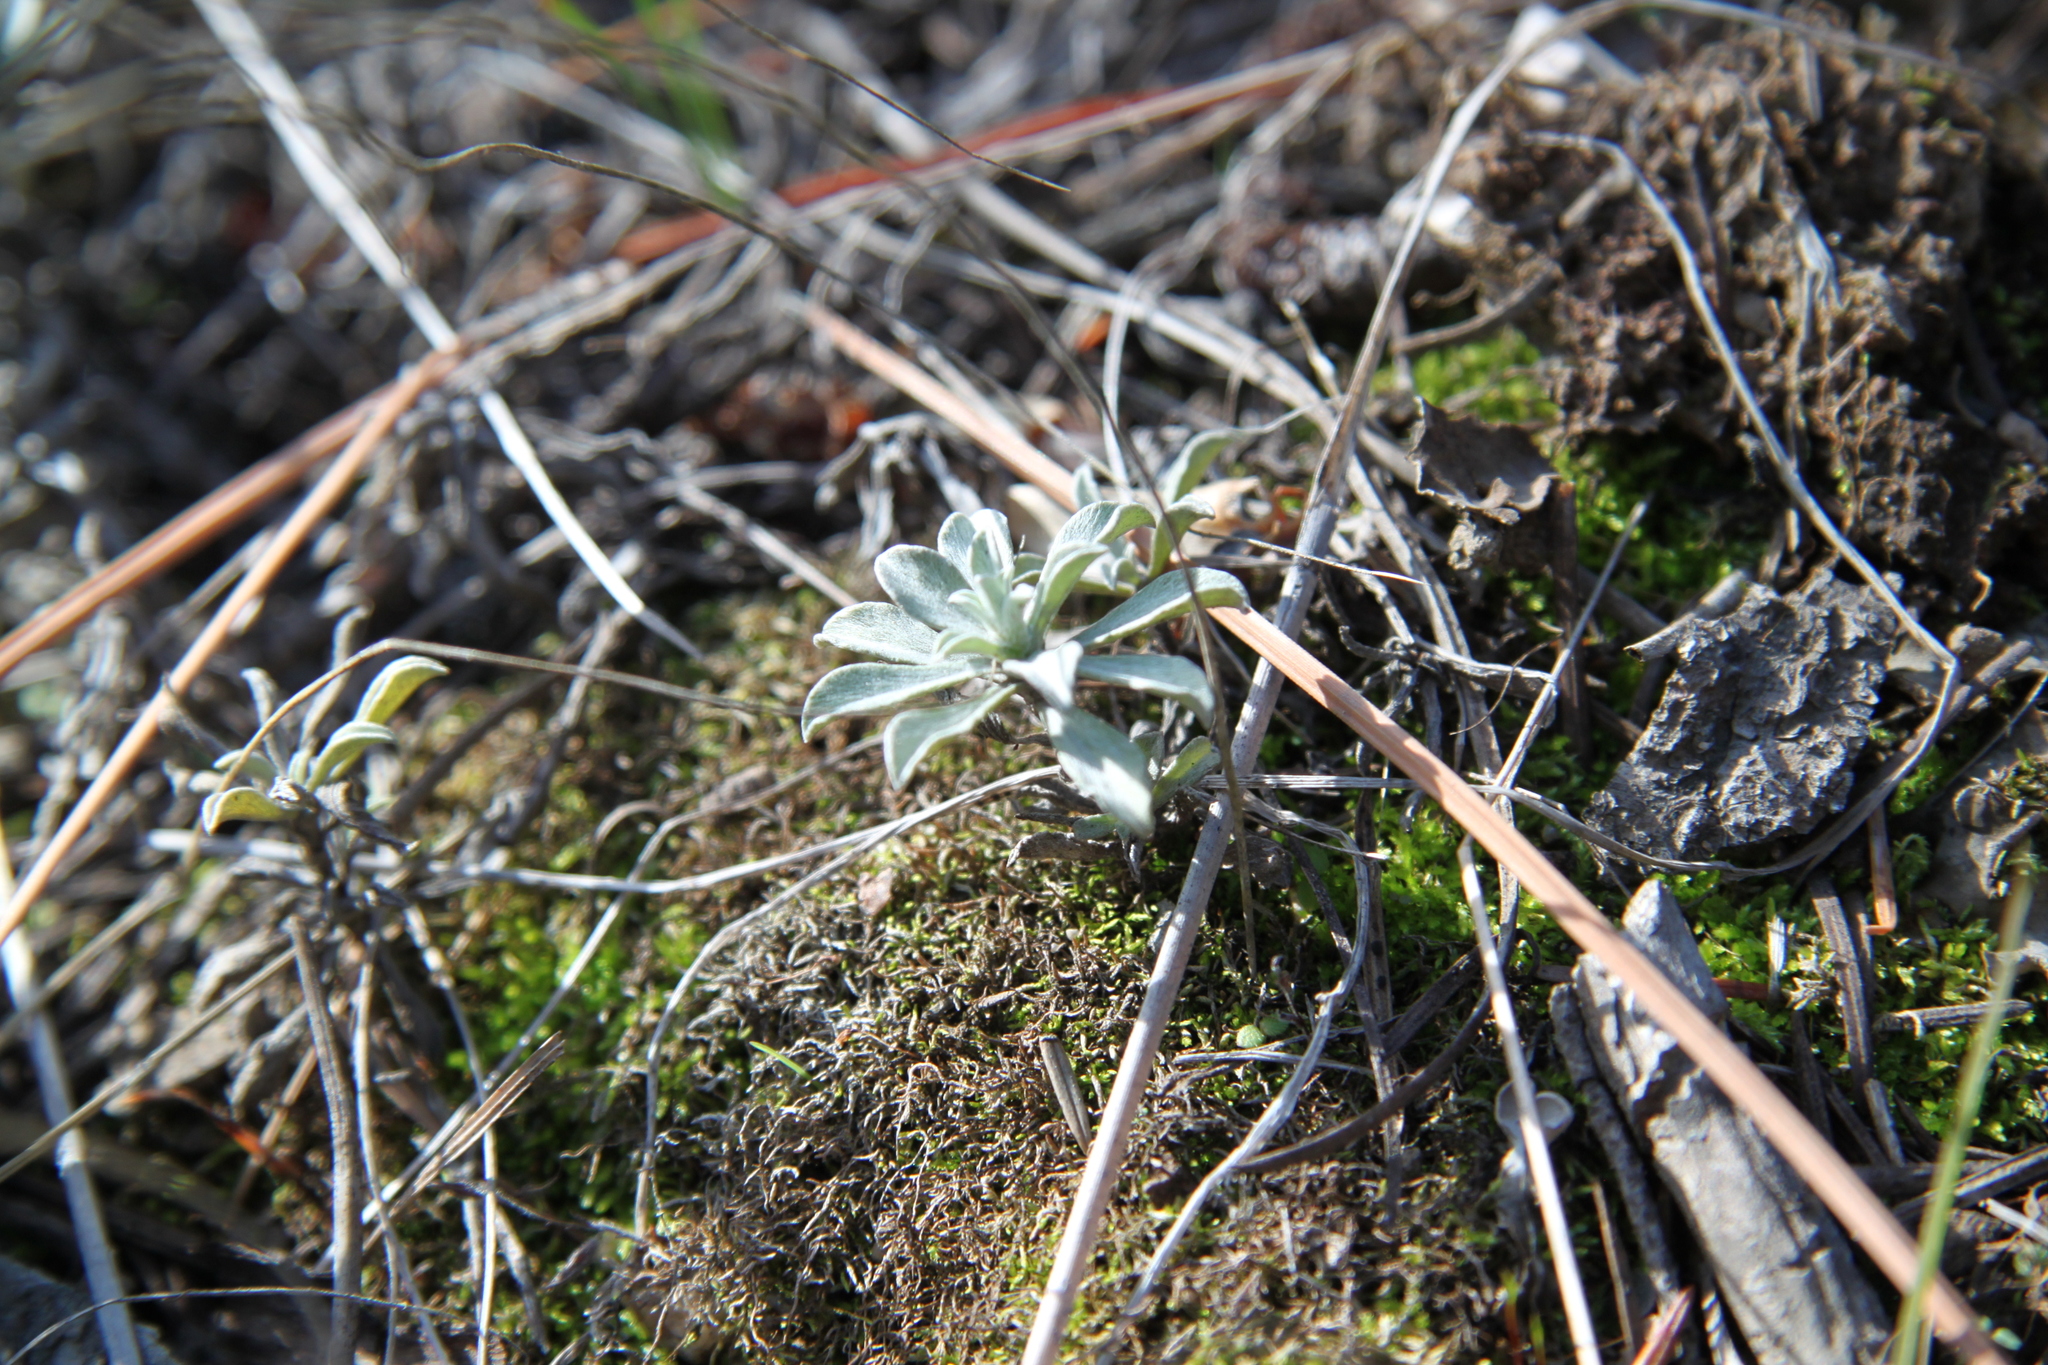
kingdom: Plantae
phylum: Tracheophyta
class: Magnoliopsida
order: Asterales
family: Asteraceae
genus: Antennaria
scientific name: Antennaria umbrinella
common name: Brown pussytoes
